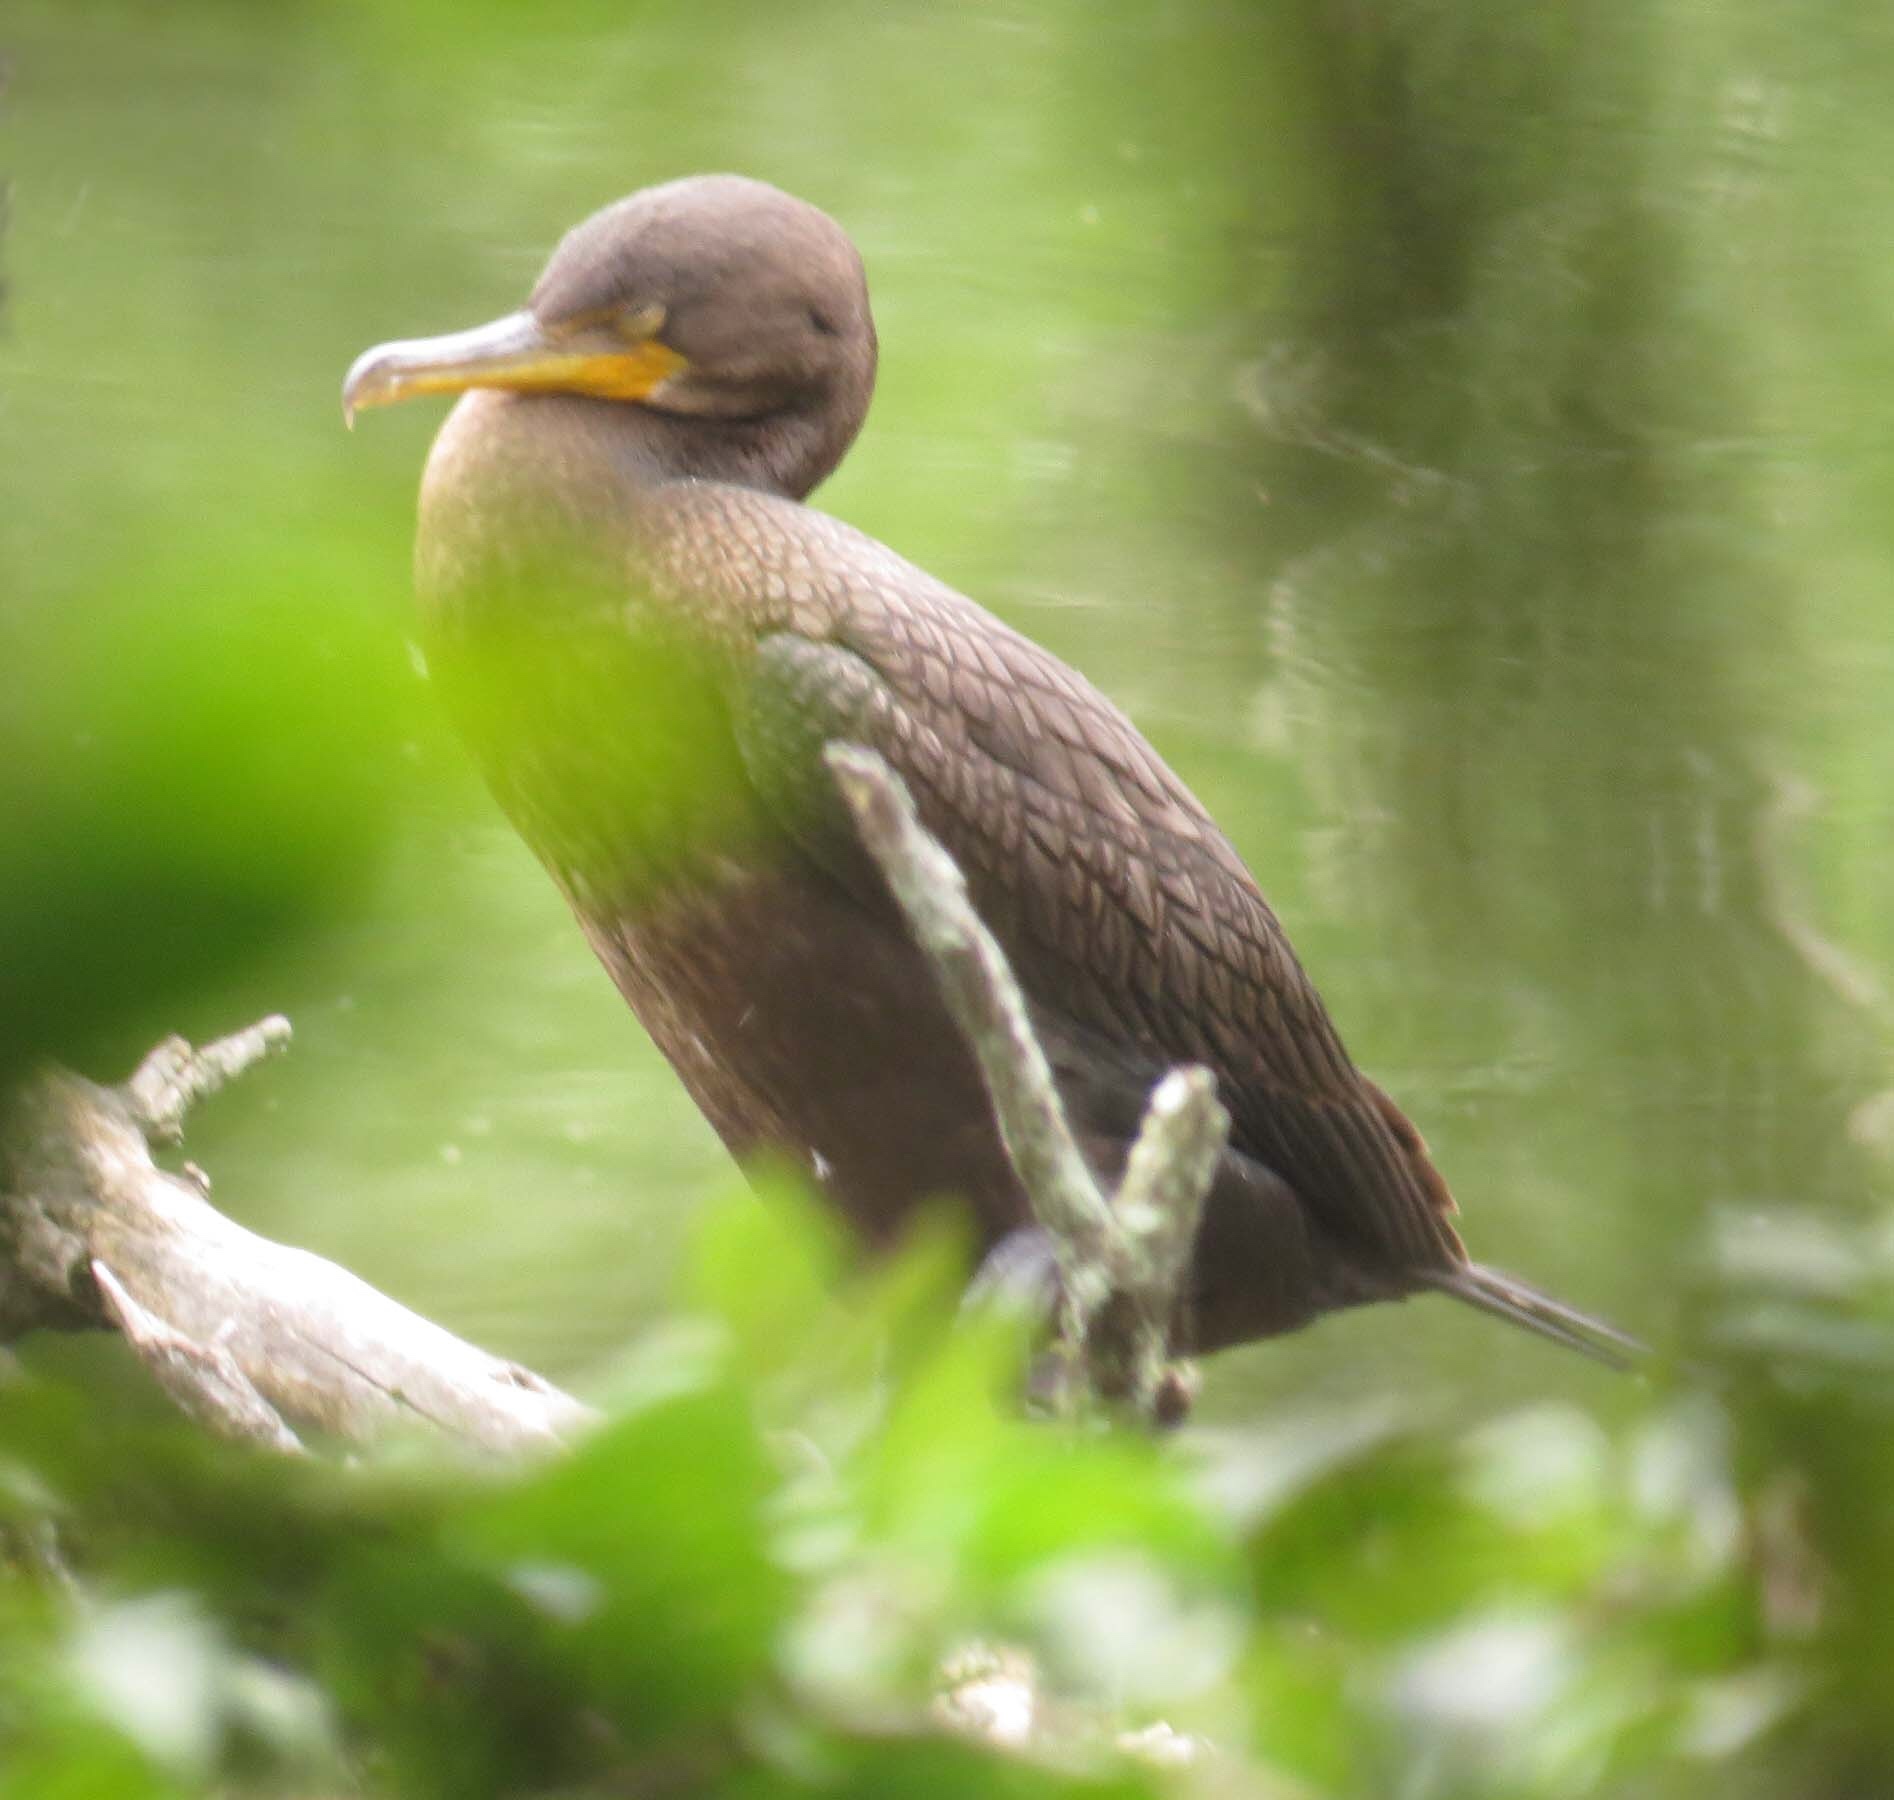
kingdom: Animalia
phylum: Chordata
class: Aves
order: Suliformes
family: Phalacrocoracidae
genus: Phalacrocorax
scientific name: Phalacrocorax auritus
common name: Double-crested cormorant
